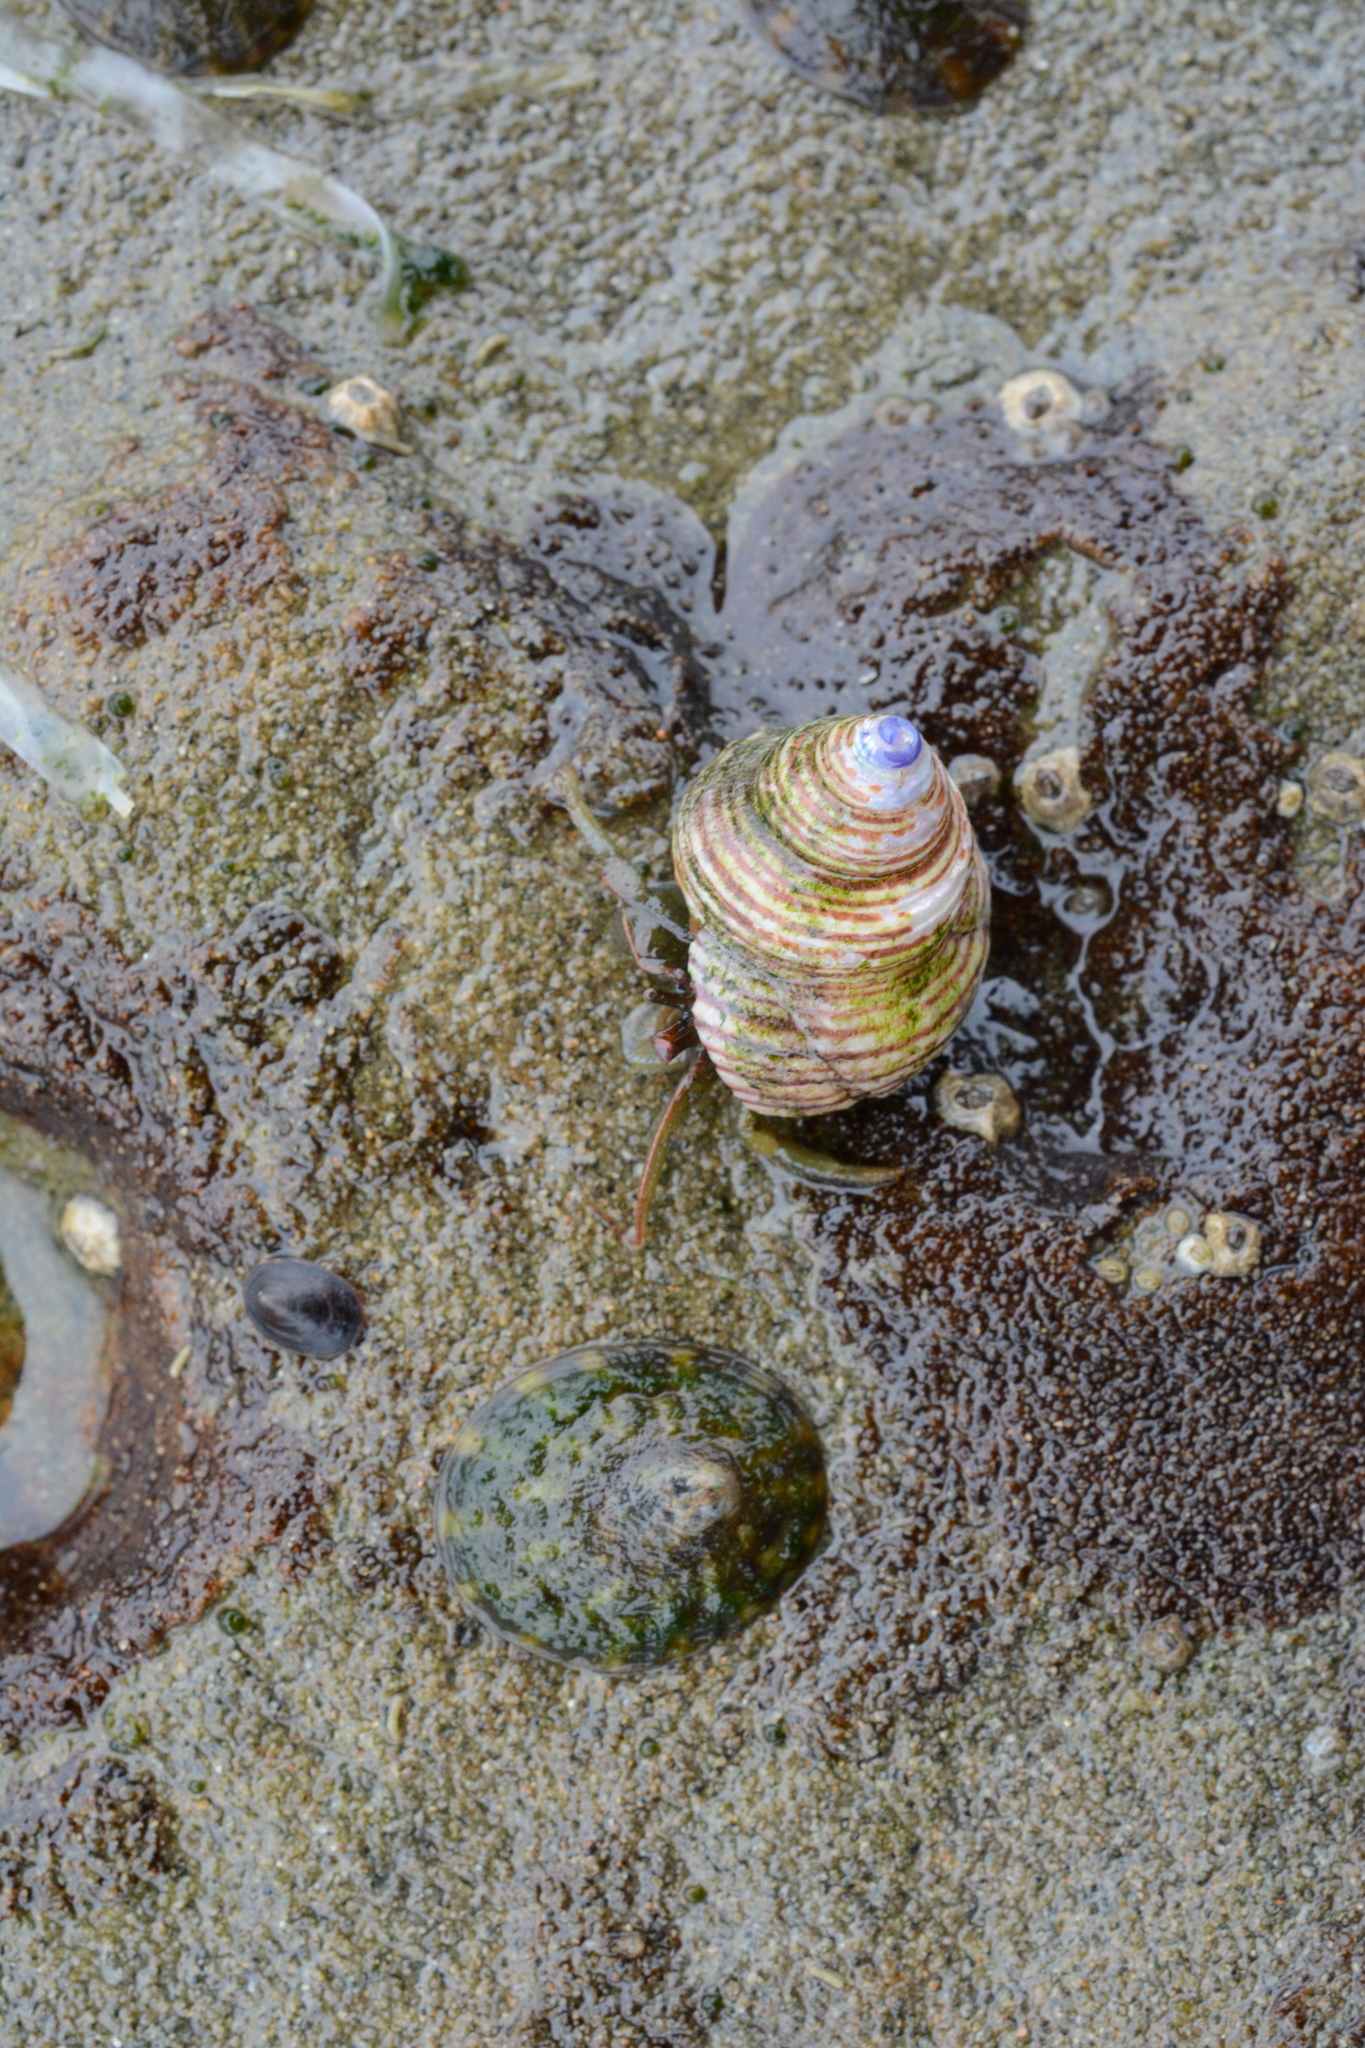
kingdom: Animalia
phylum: Mollusca
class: Gastropoda
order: Trochida
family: Calliostomatidae
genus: Calliostoma
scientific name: Calliostoma ligatum
